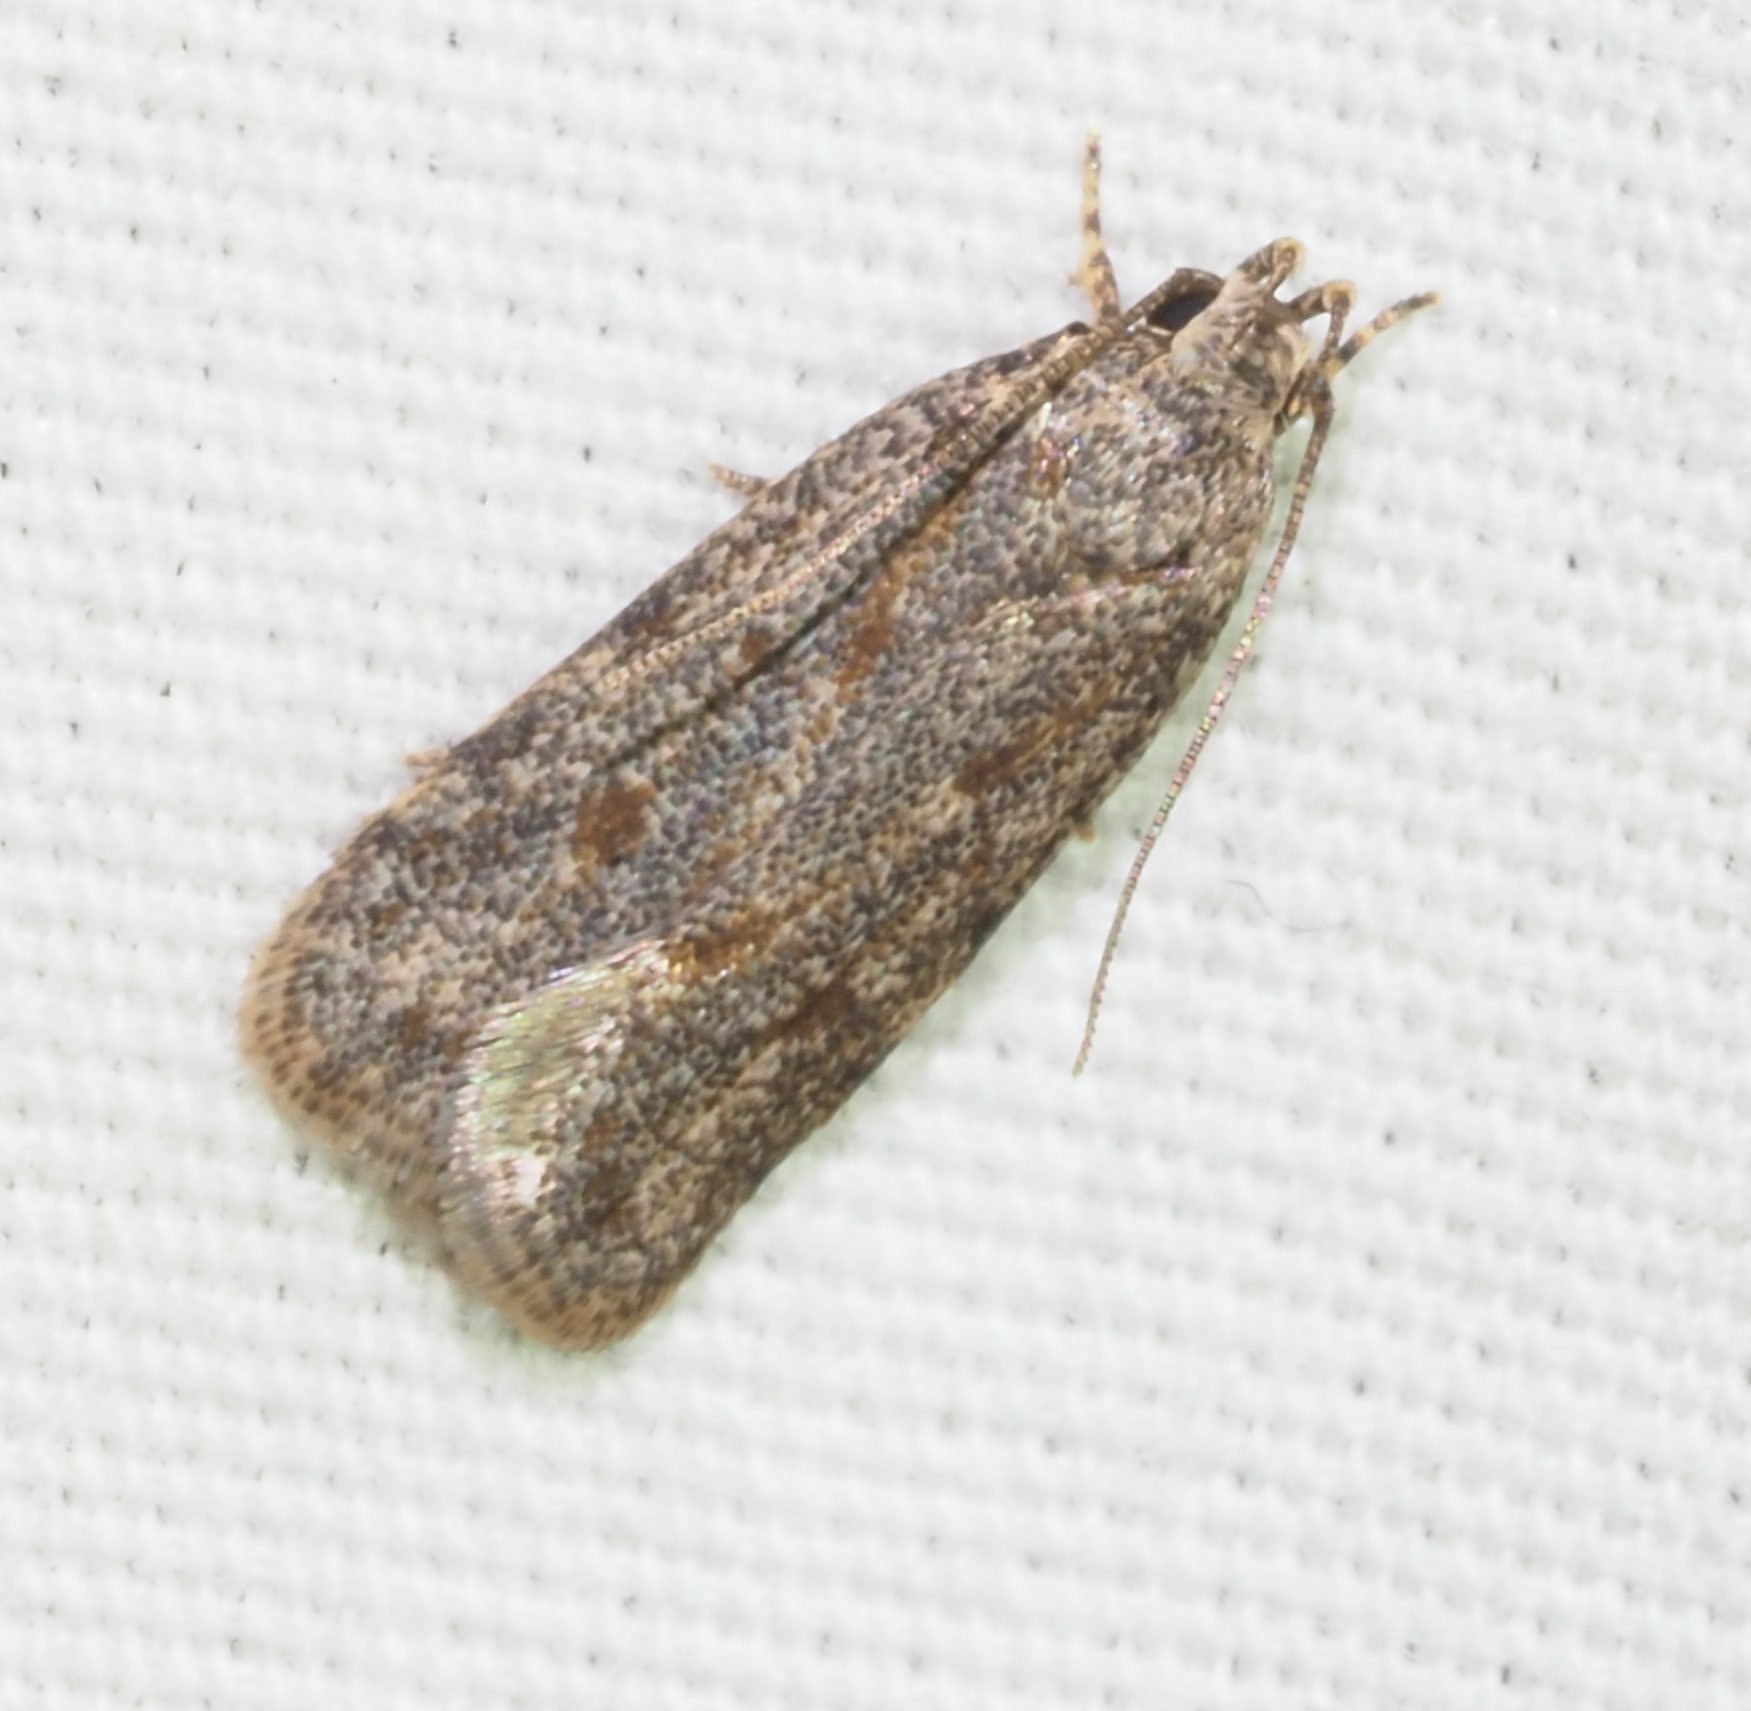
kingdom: Animalia
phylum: Arthropoda
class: Insecta
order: Lepidoptera
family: Autostichidae
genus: Stoeberhinus
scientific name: Stoeberhinus testaceus
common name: Moth
